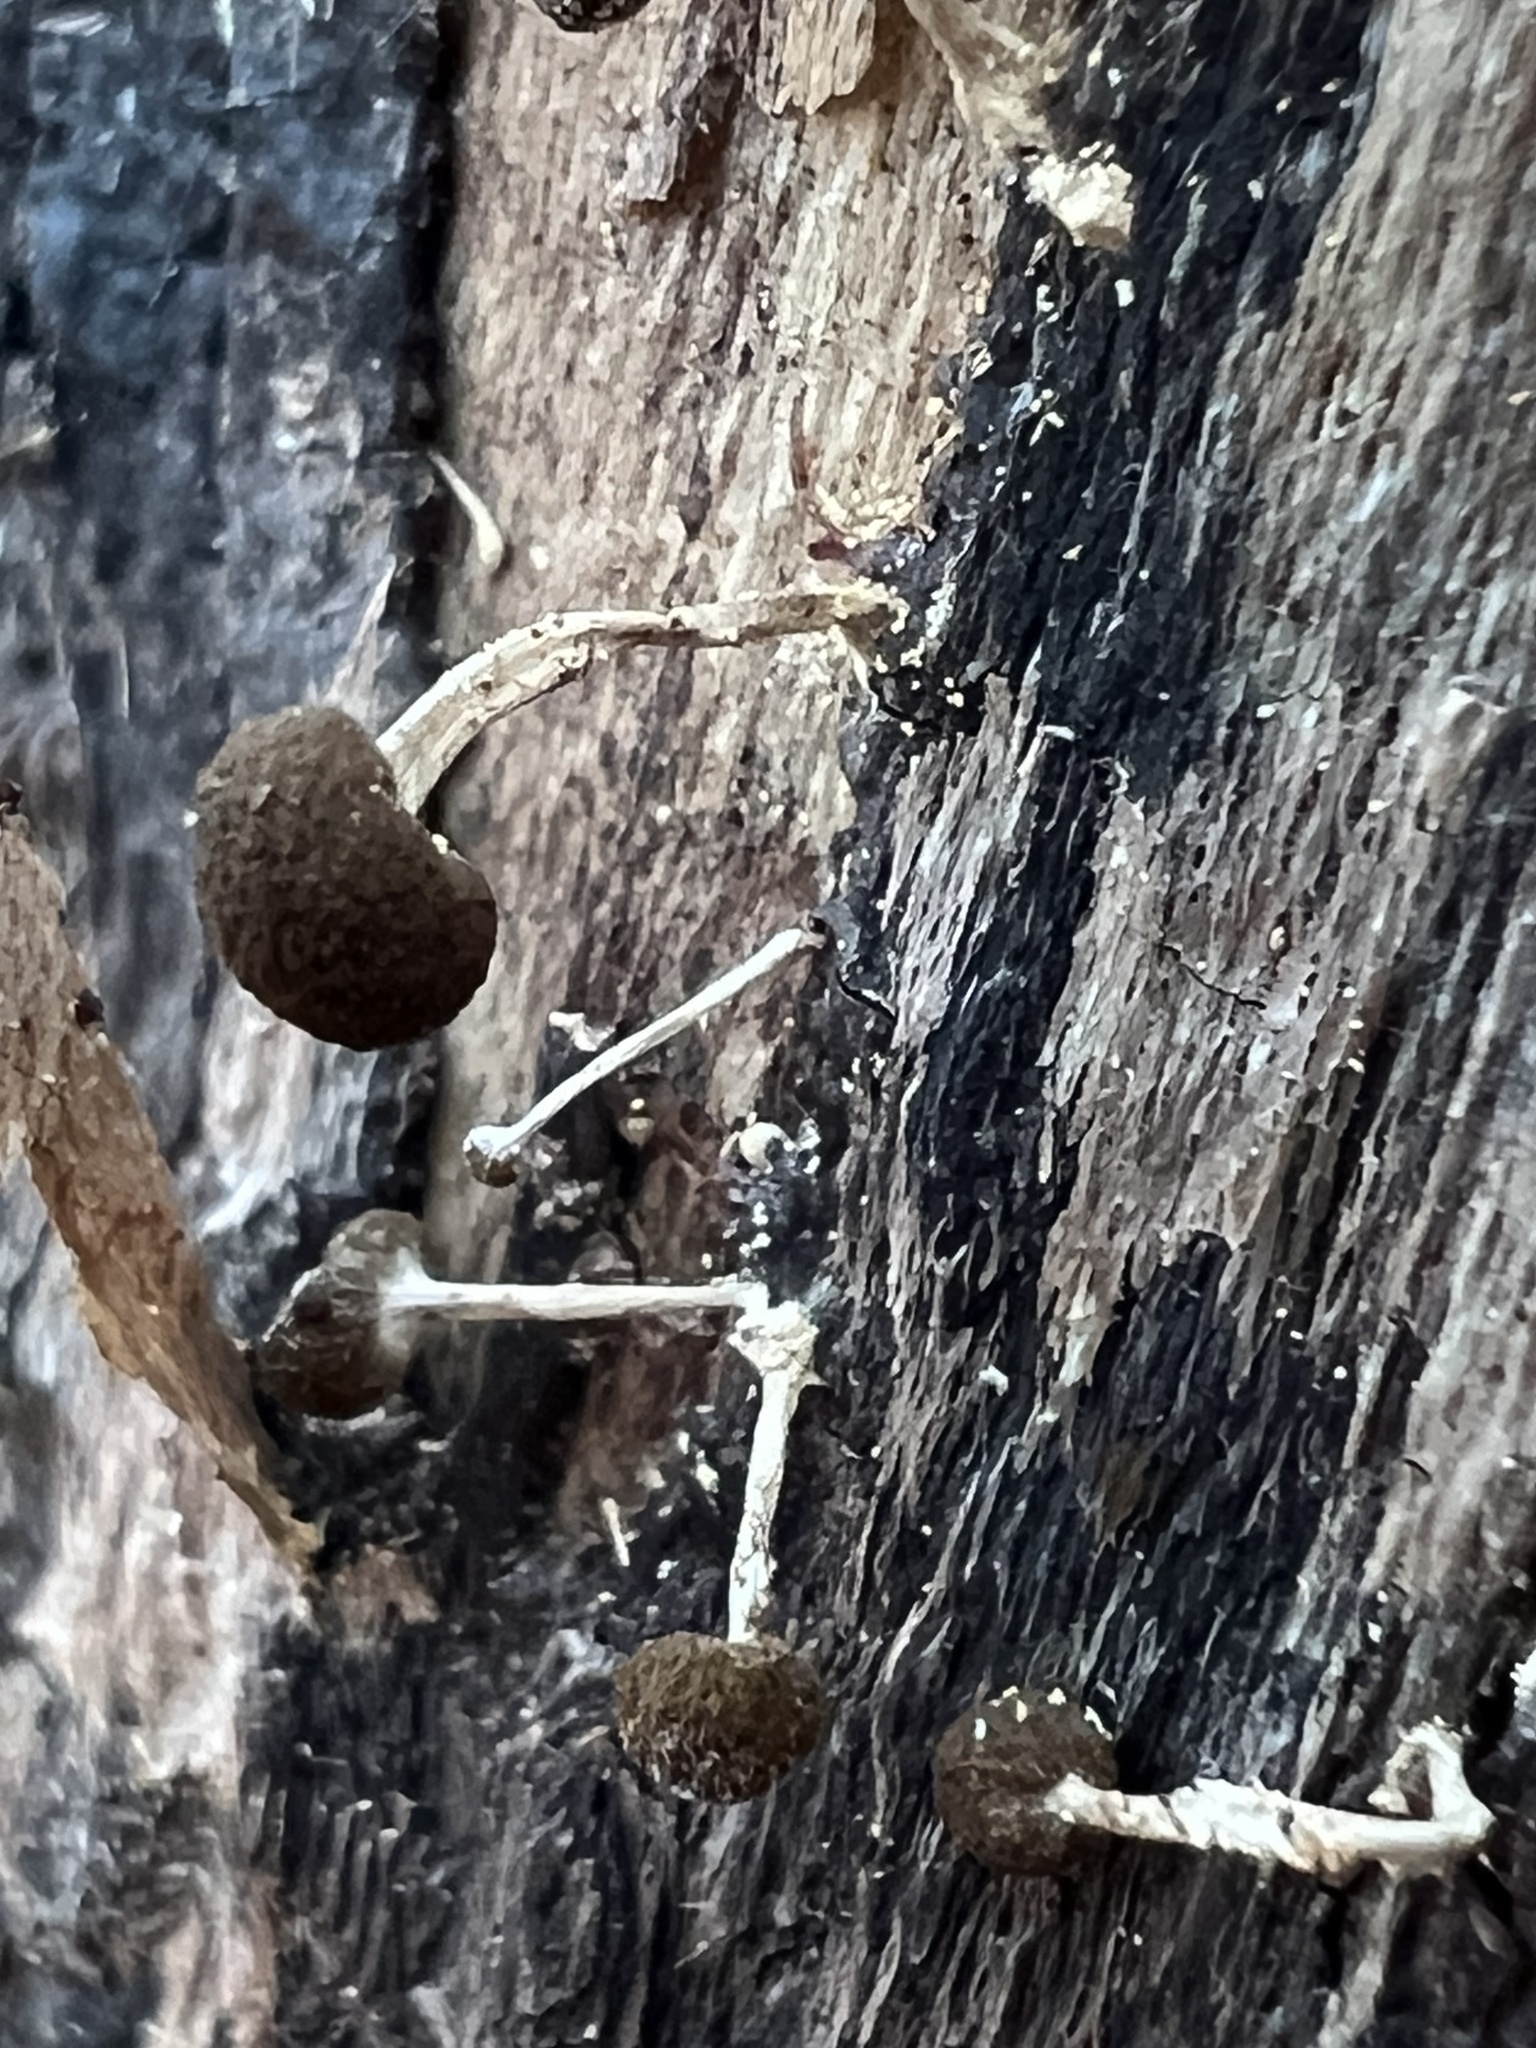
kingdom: Fungi
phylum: Basidiomycota
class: Atractiellomycetes
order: Atractiellales
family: Phleogenaceae
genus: Phleogena
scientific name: Phleogena faginea
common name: Fenugreek stalkball
